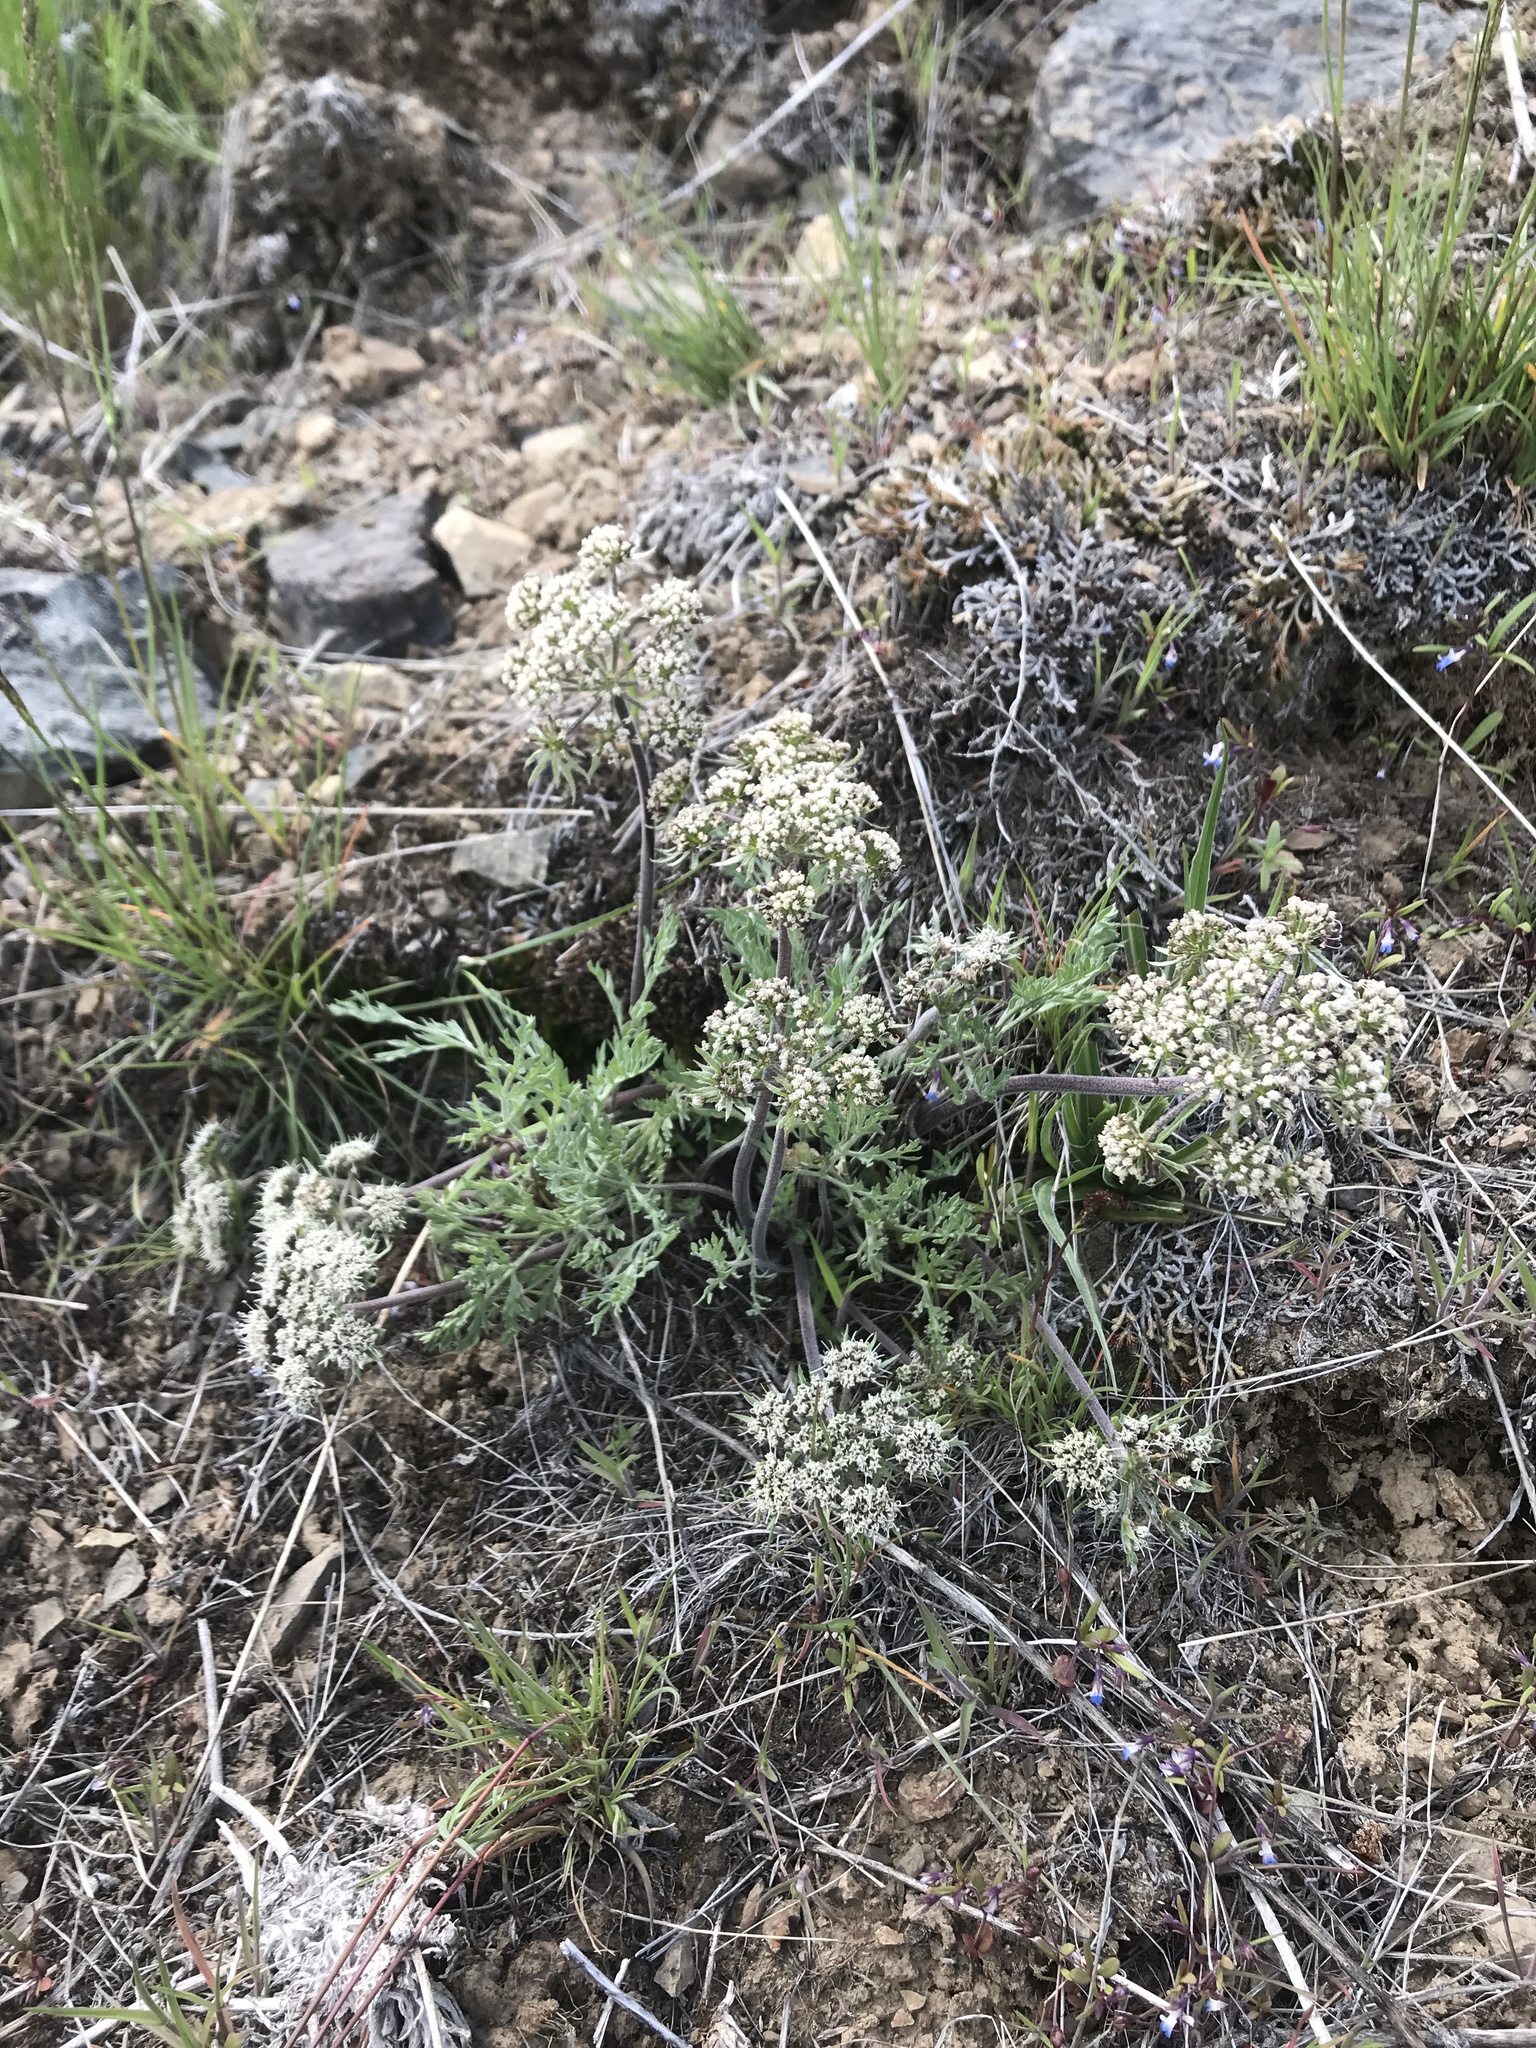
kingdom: Plantae
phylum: Tracheophyta
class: Magnoliopsida
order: Apiales
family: Apiaceae
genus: Lomatium
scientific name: Lomatium macrocarpum
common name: Big-seed biscuitroot
